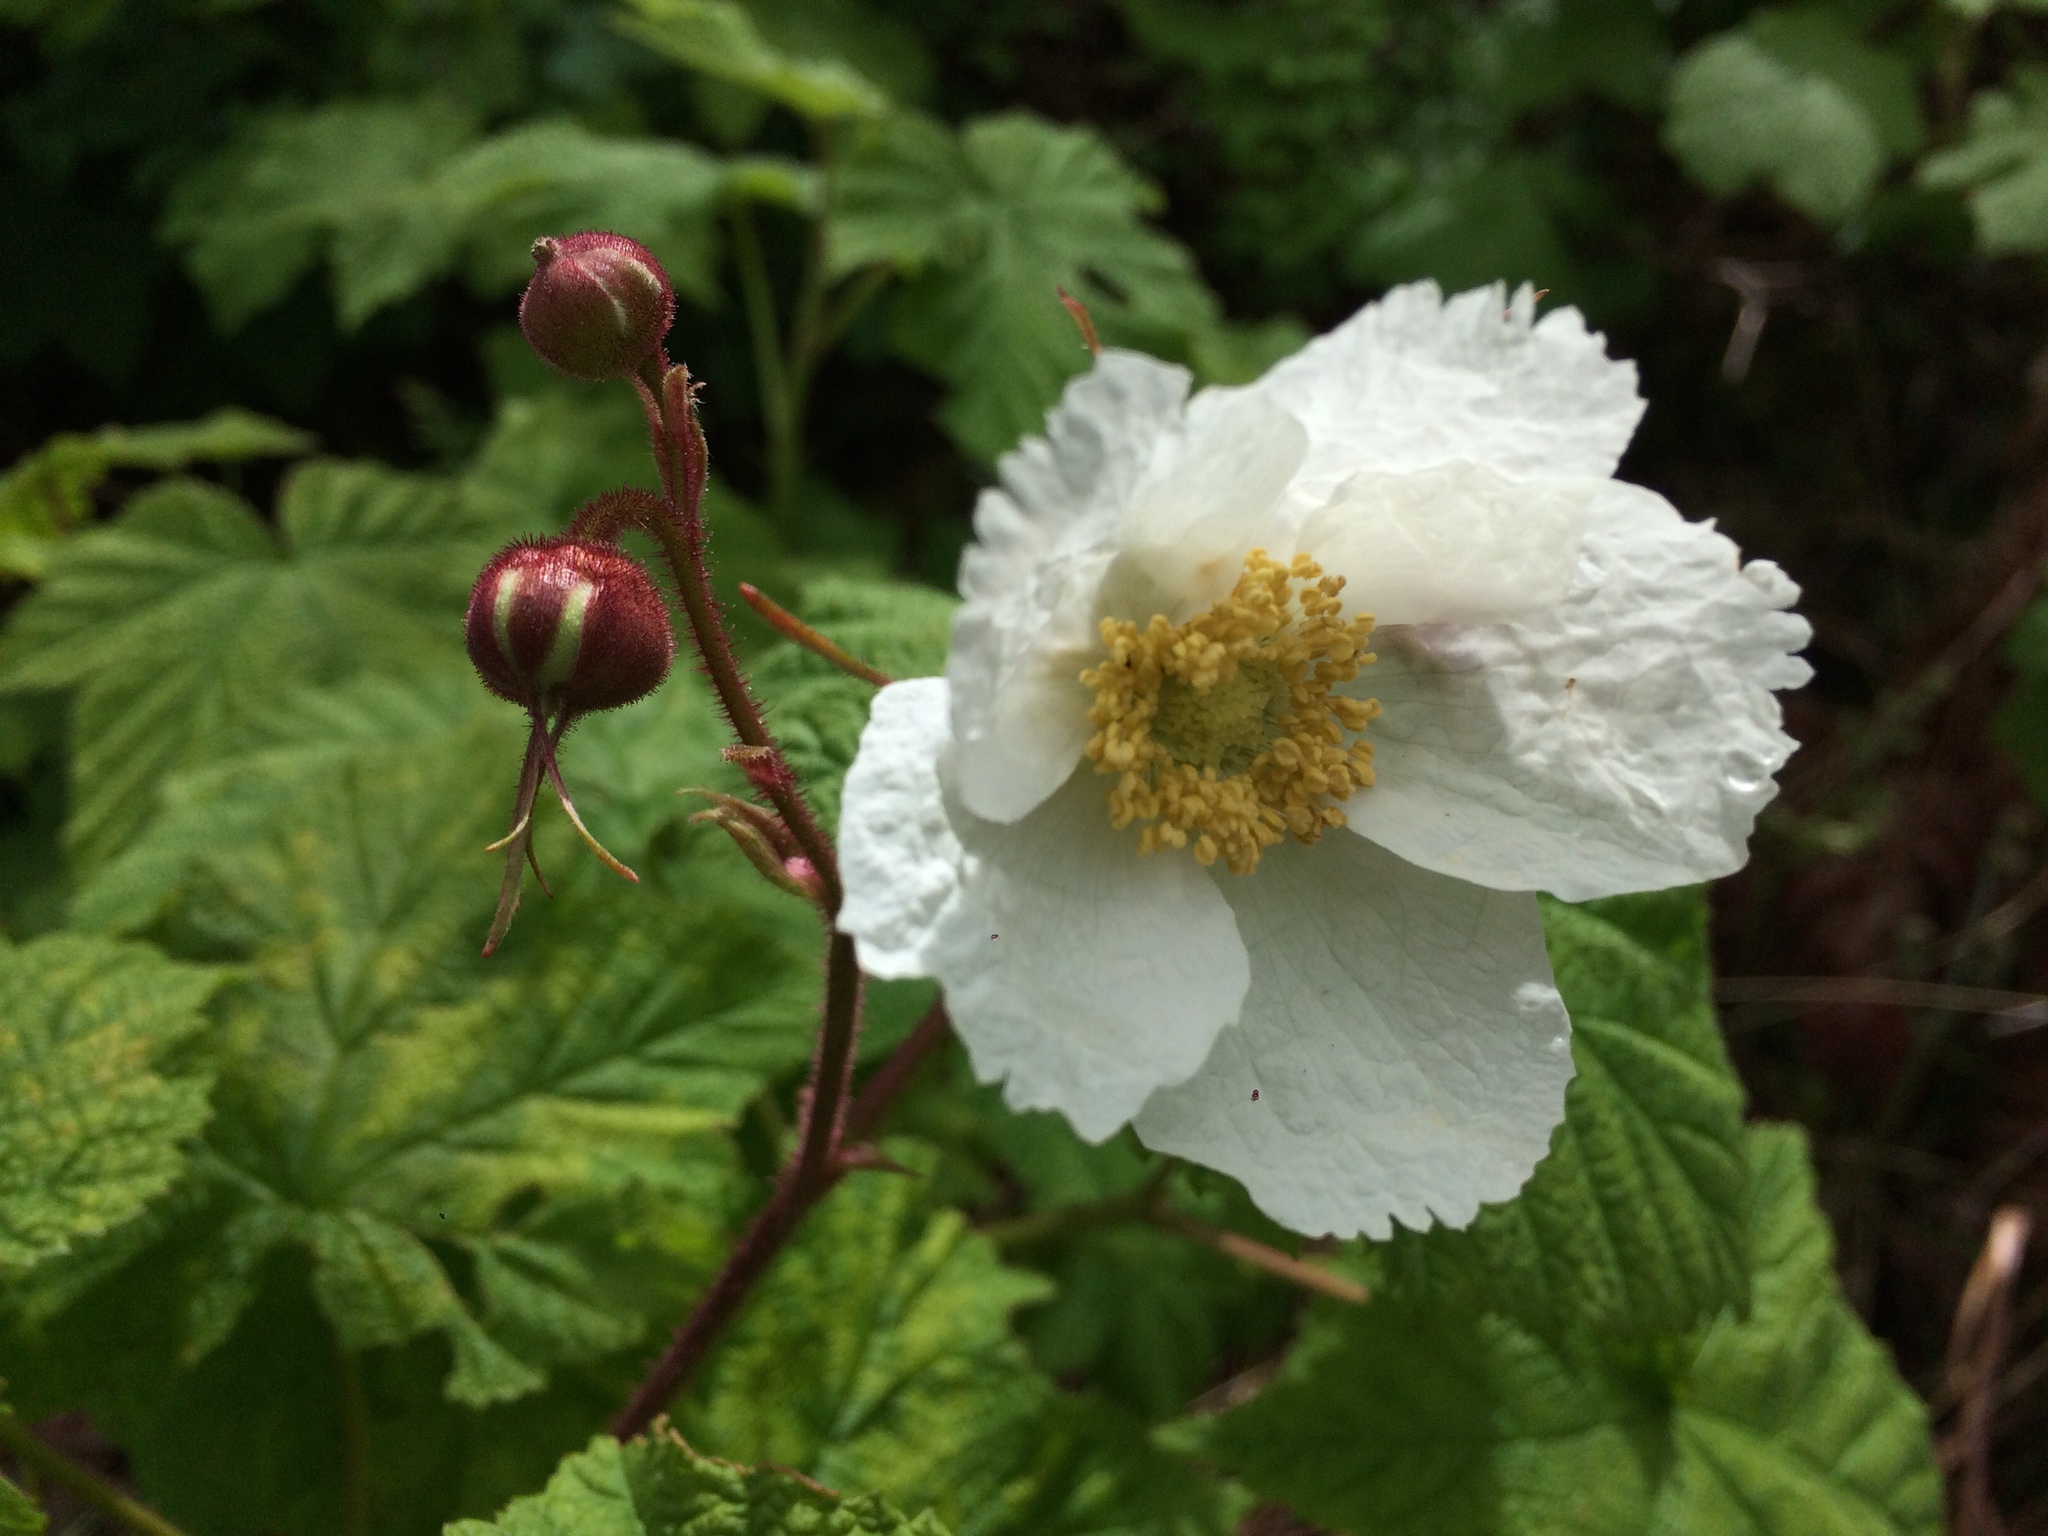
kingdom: Plantae
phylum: Tracheophyta
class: Magnoliopsida
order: Rosales
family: Rosaceae
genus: Rubus
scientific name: Rubus parviflorus
